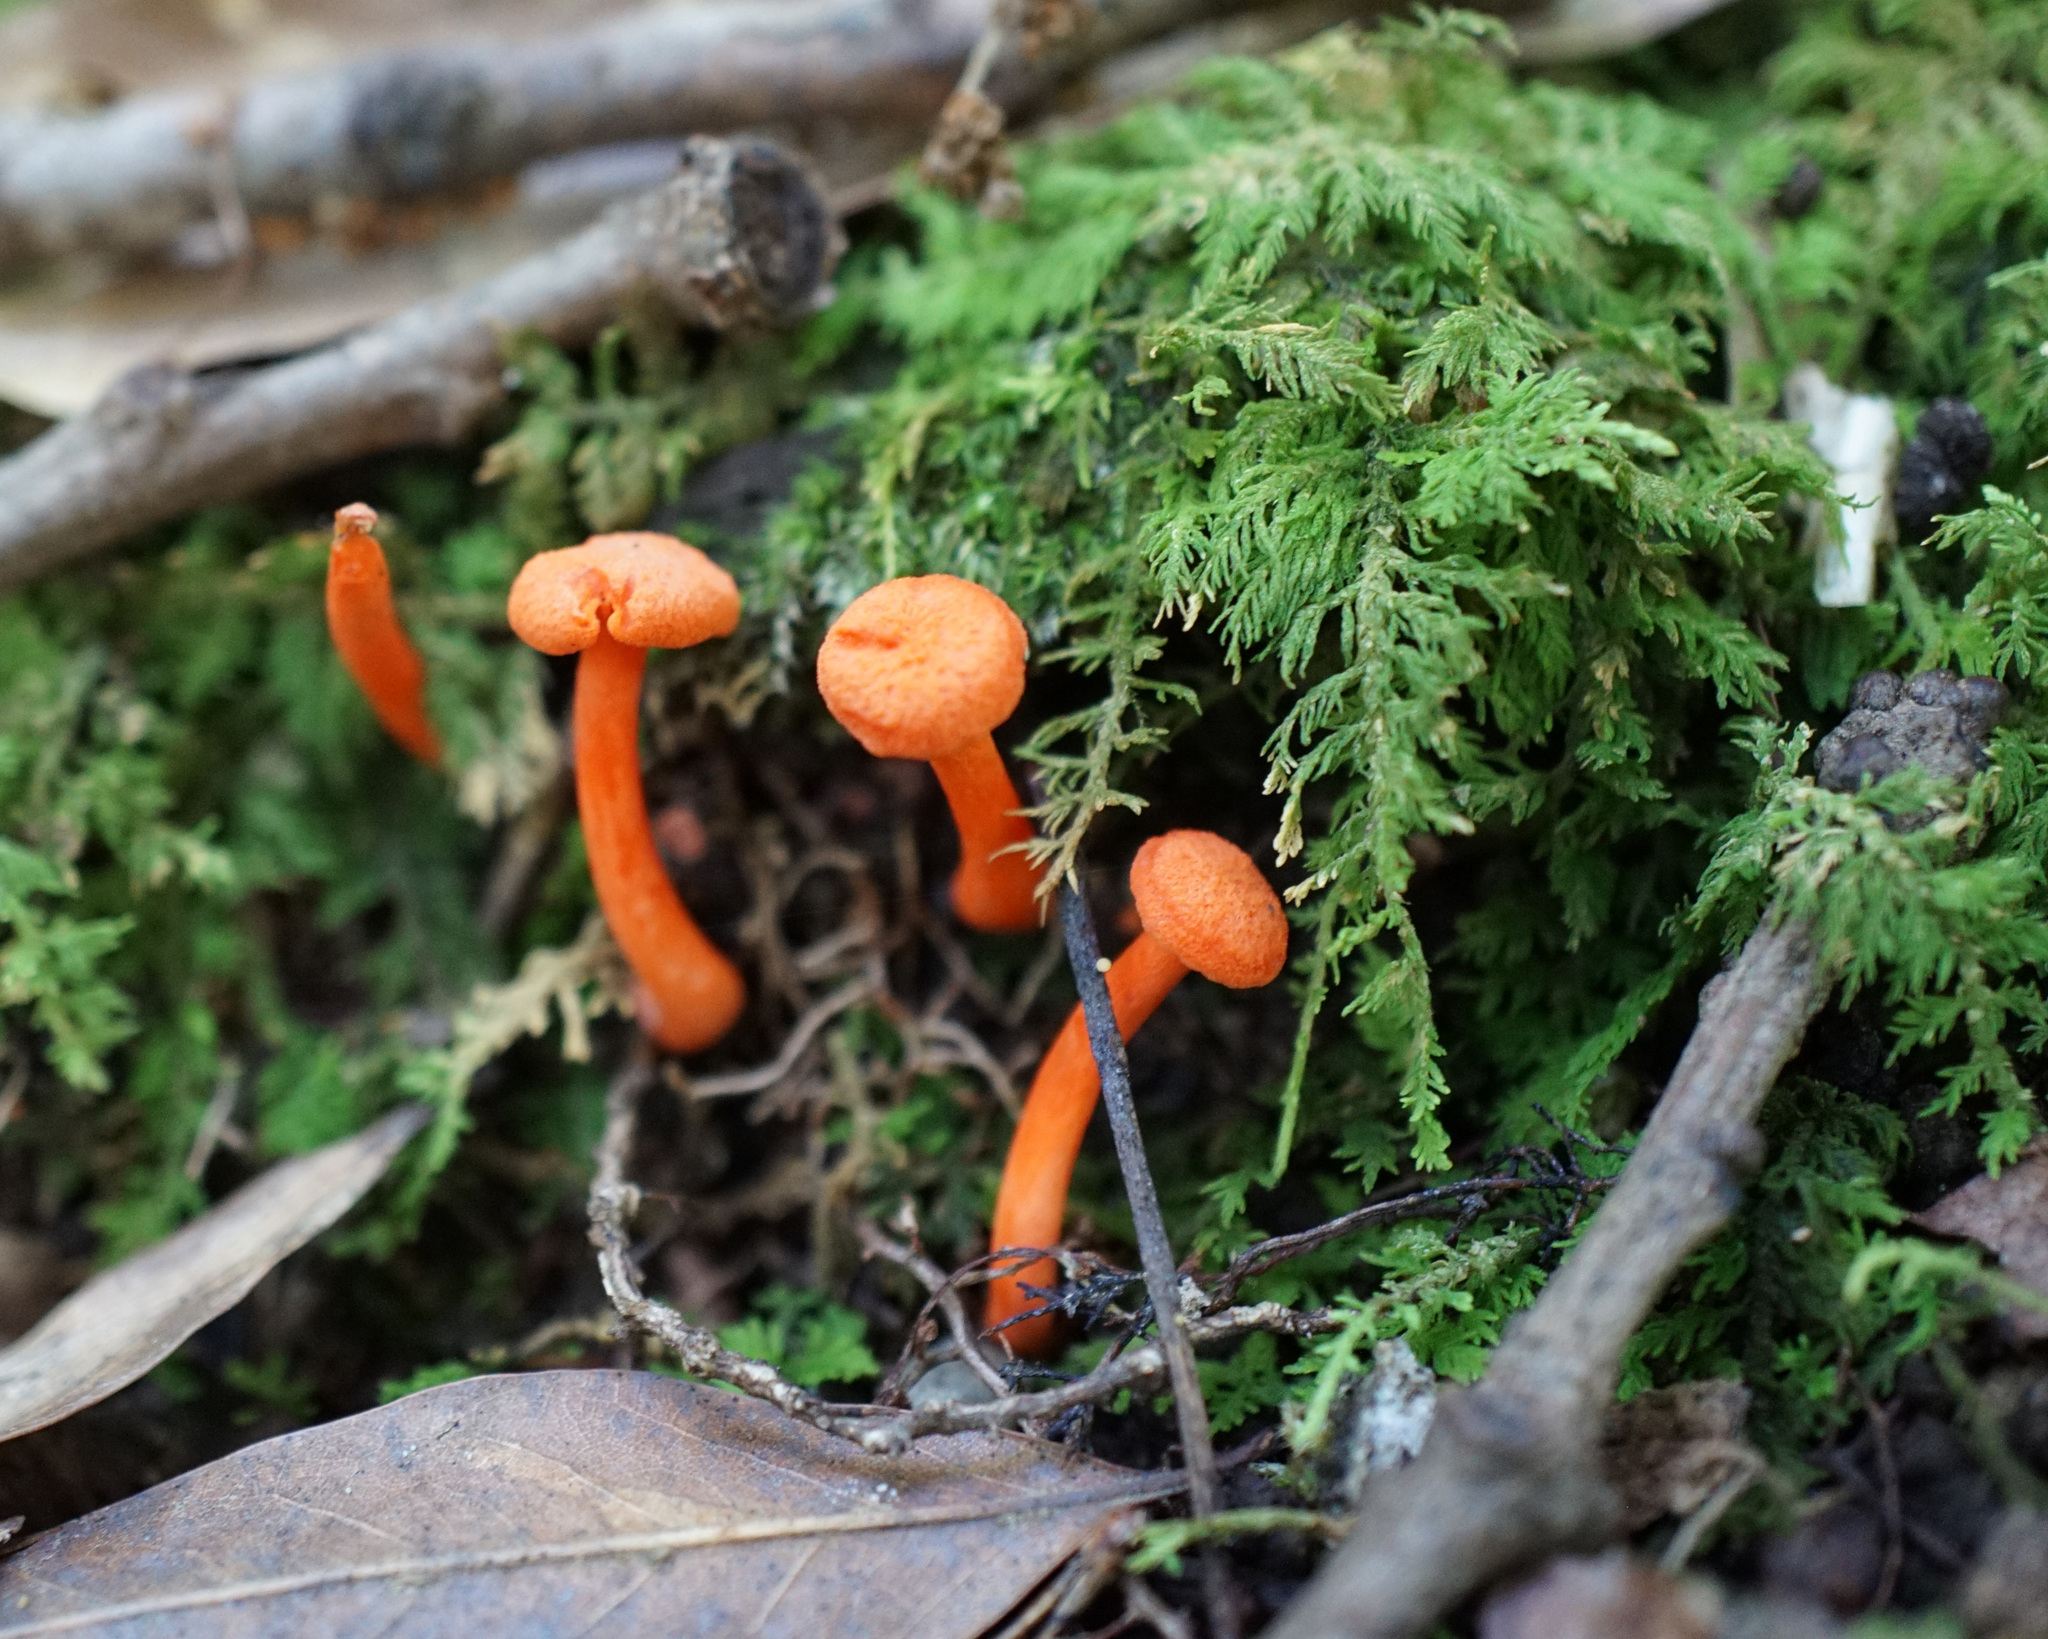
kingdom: Fungi
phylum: Basidiomycota
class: Agaricomycetes
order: Cantharellales
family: Hydnaceae
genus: Cantharellus
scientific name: Cantharellus cinnabarinus
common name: Cinnabar chanterelle
